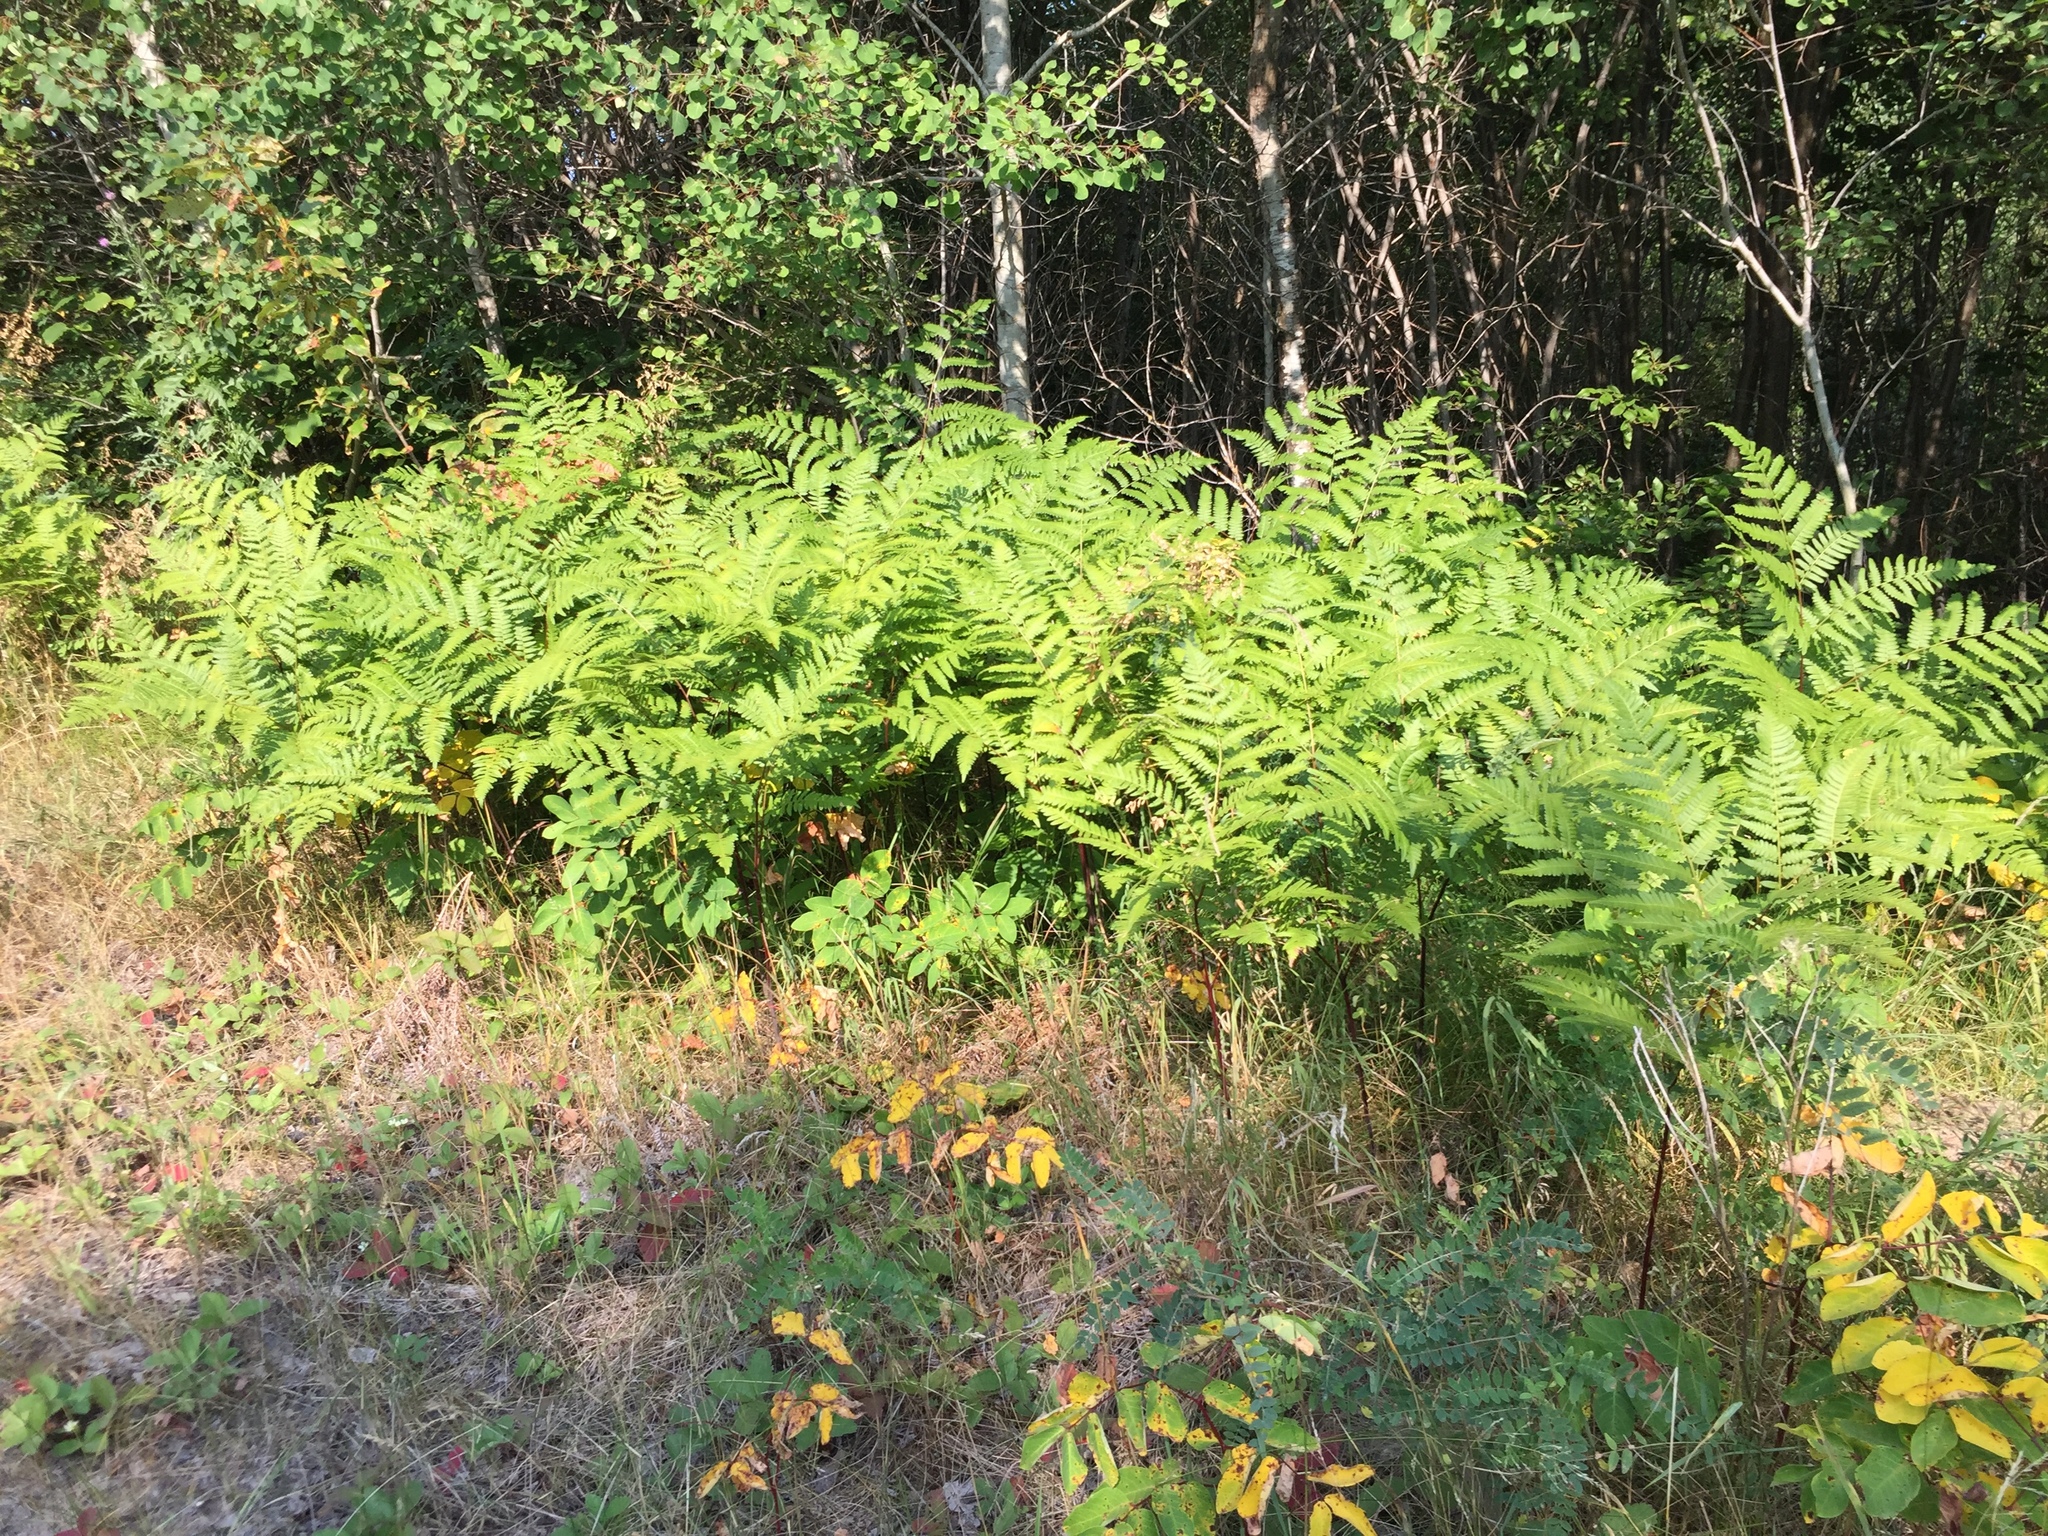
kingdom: Plantae
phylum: Tracheophyta
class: Polypodiopsida
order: Polypodiales
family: Dennstaedtiaceae
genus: Pteridium
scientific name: Pteridium aquilinum
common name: Bracken
